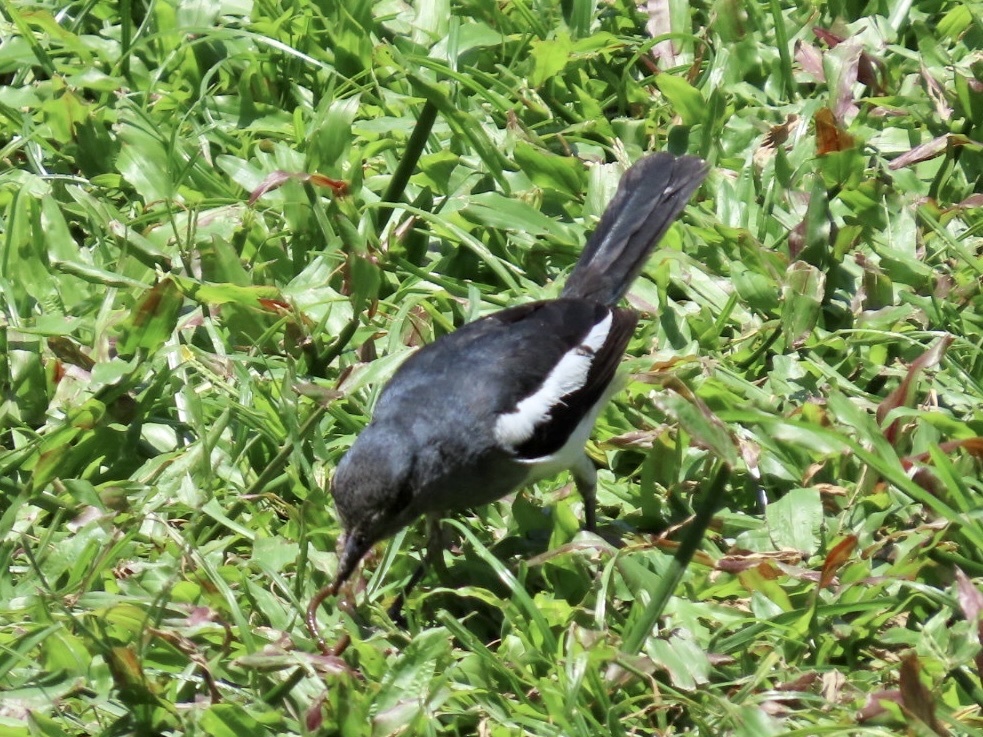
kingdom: Animalia
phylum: Chordata
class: Aves
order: Passeriformes
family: Muscicapidae
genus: Copsychus
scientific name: Copsychus saularis
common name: Oriental magpie-robin
